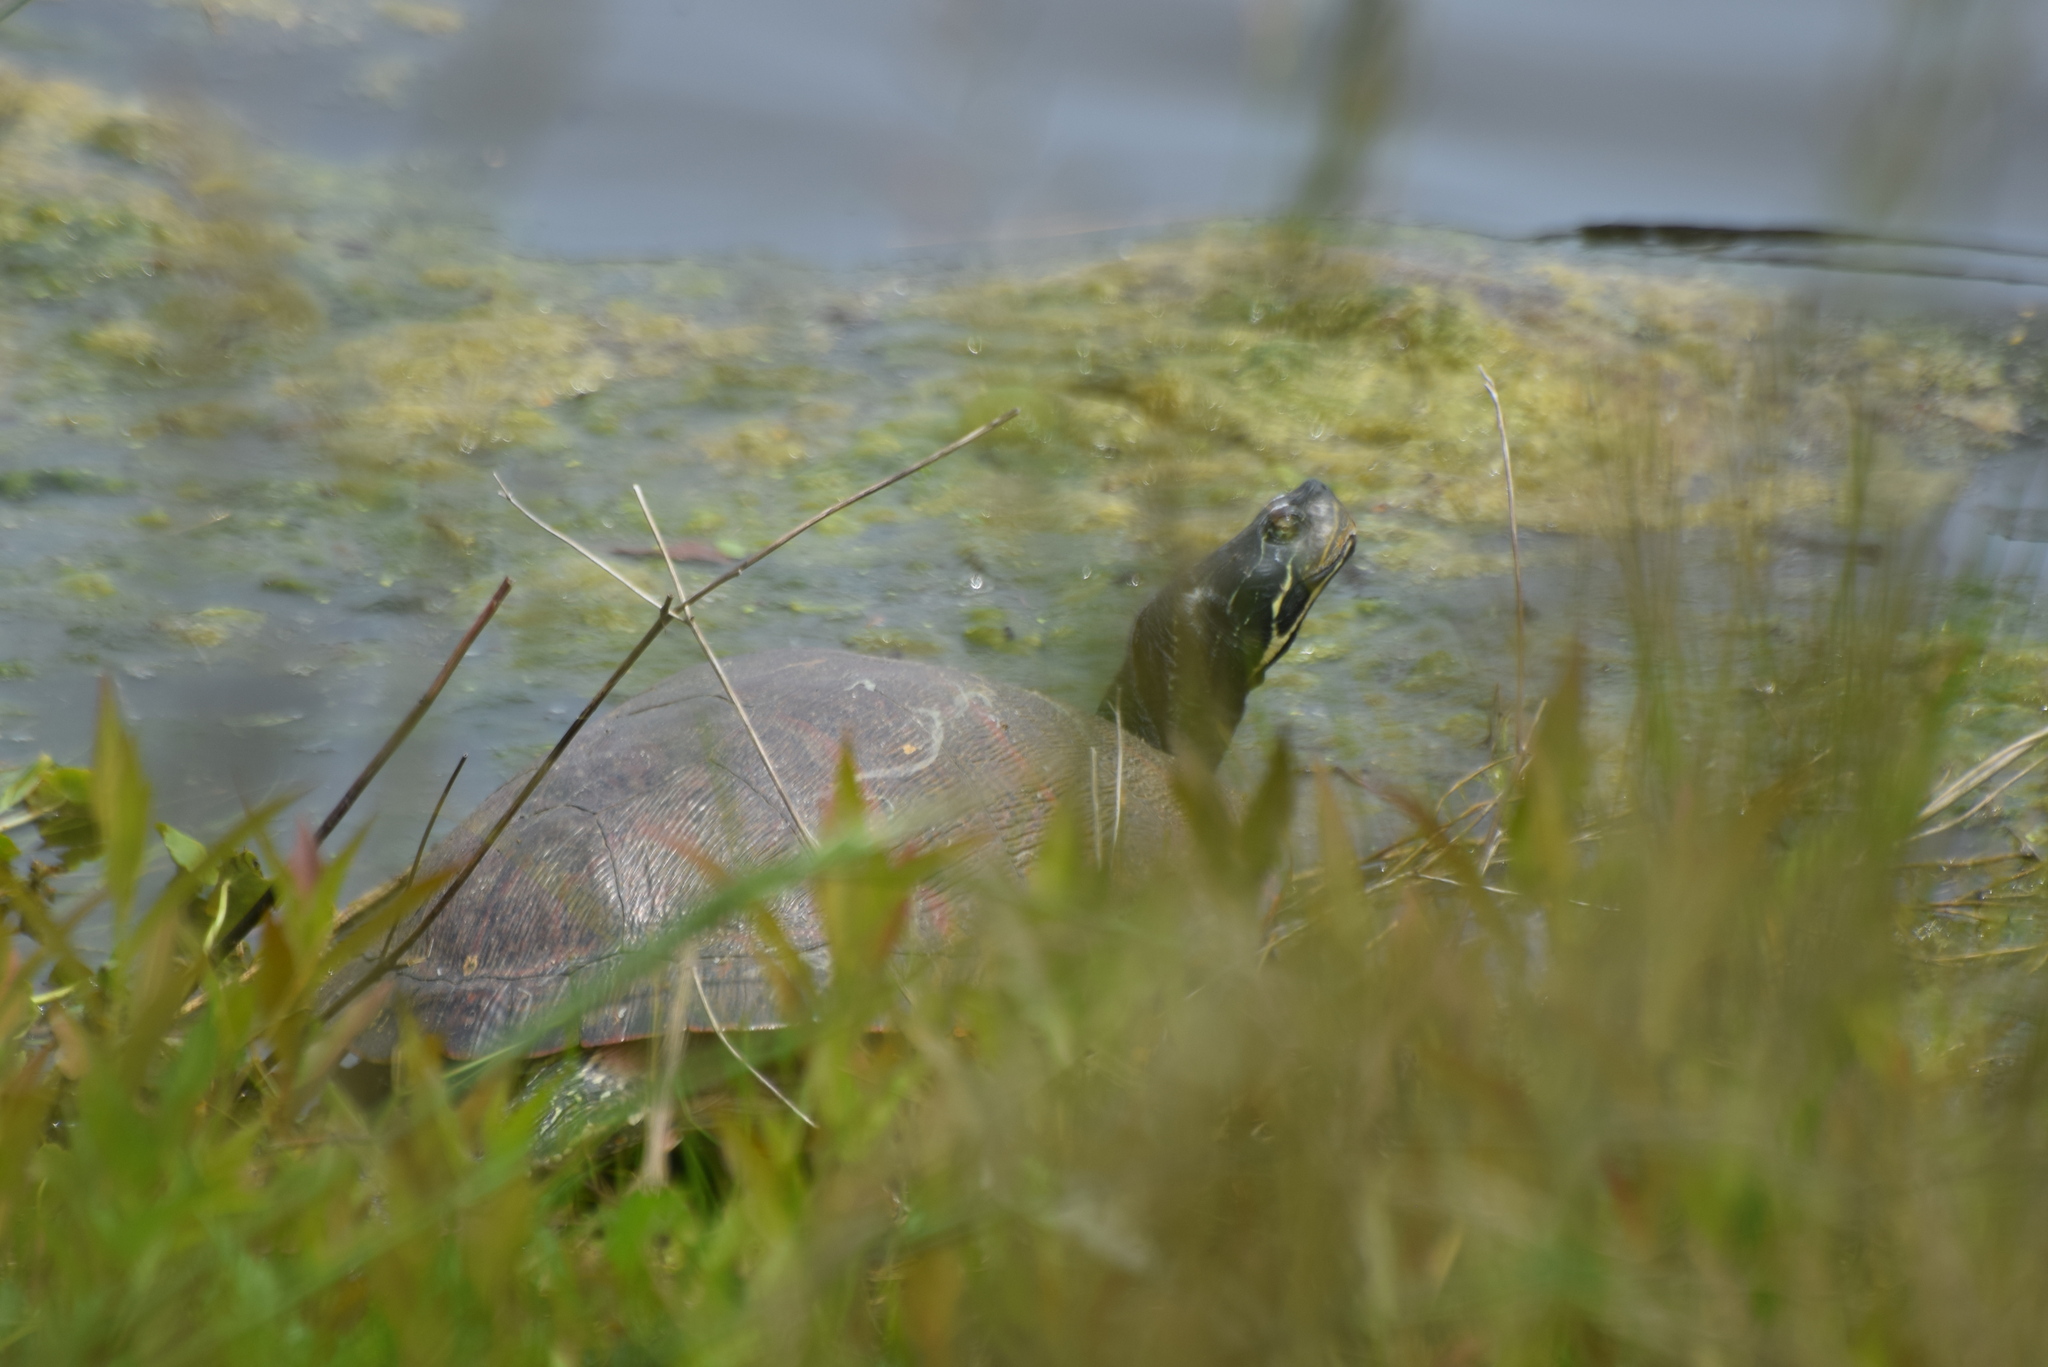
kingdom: Animalia
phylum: Chordata
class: Testudines
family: Emydidae
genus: Pseudemys
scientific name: Pseudemys rubriventris
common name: American red-bellied turtle
